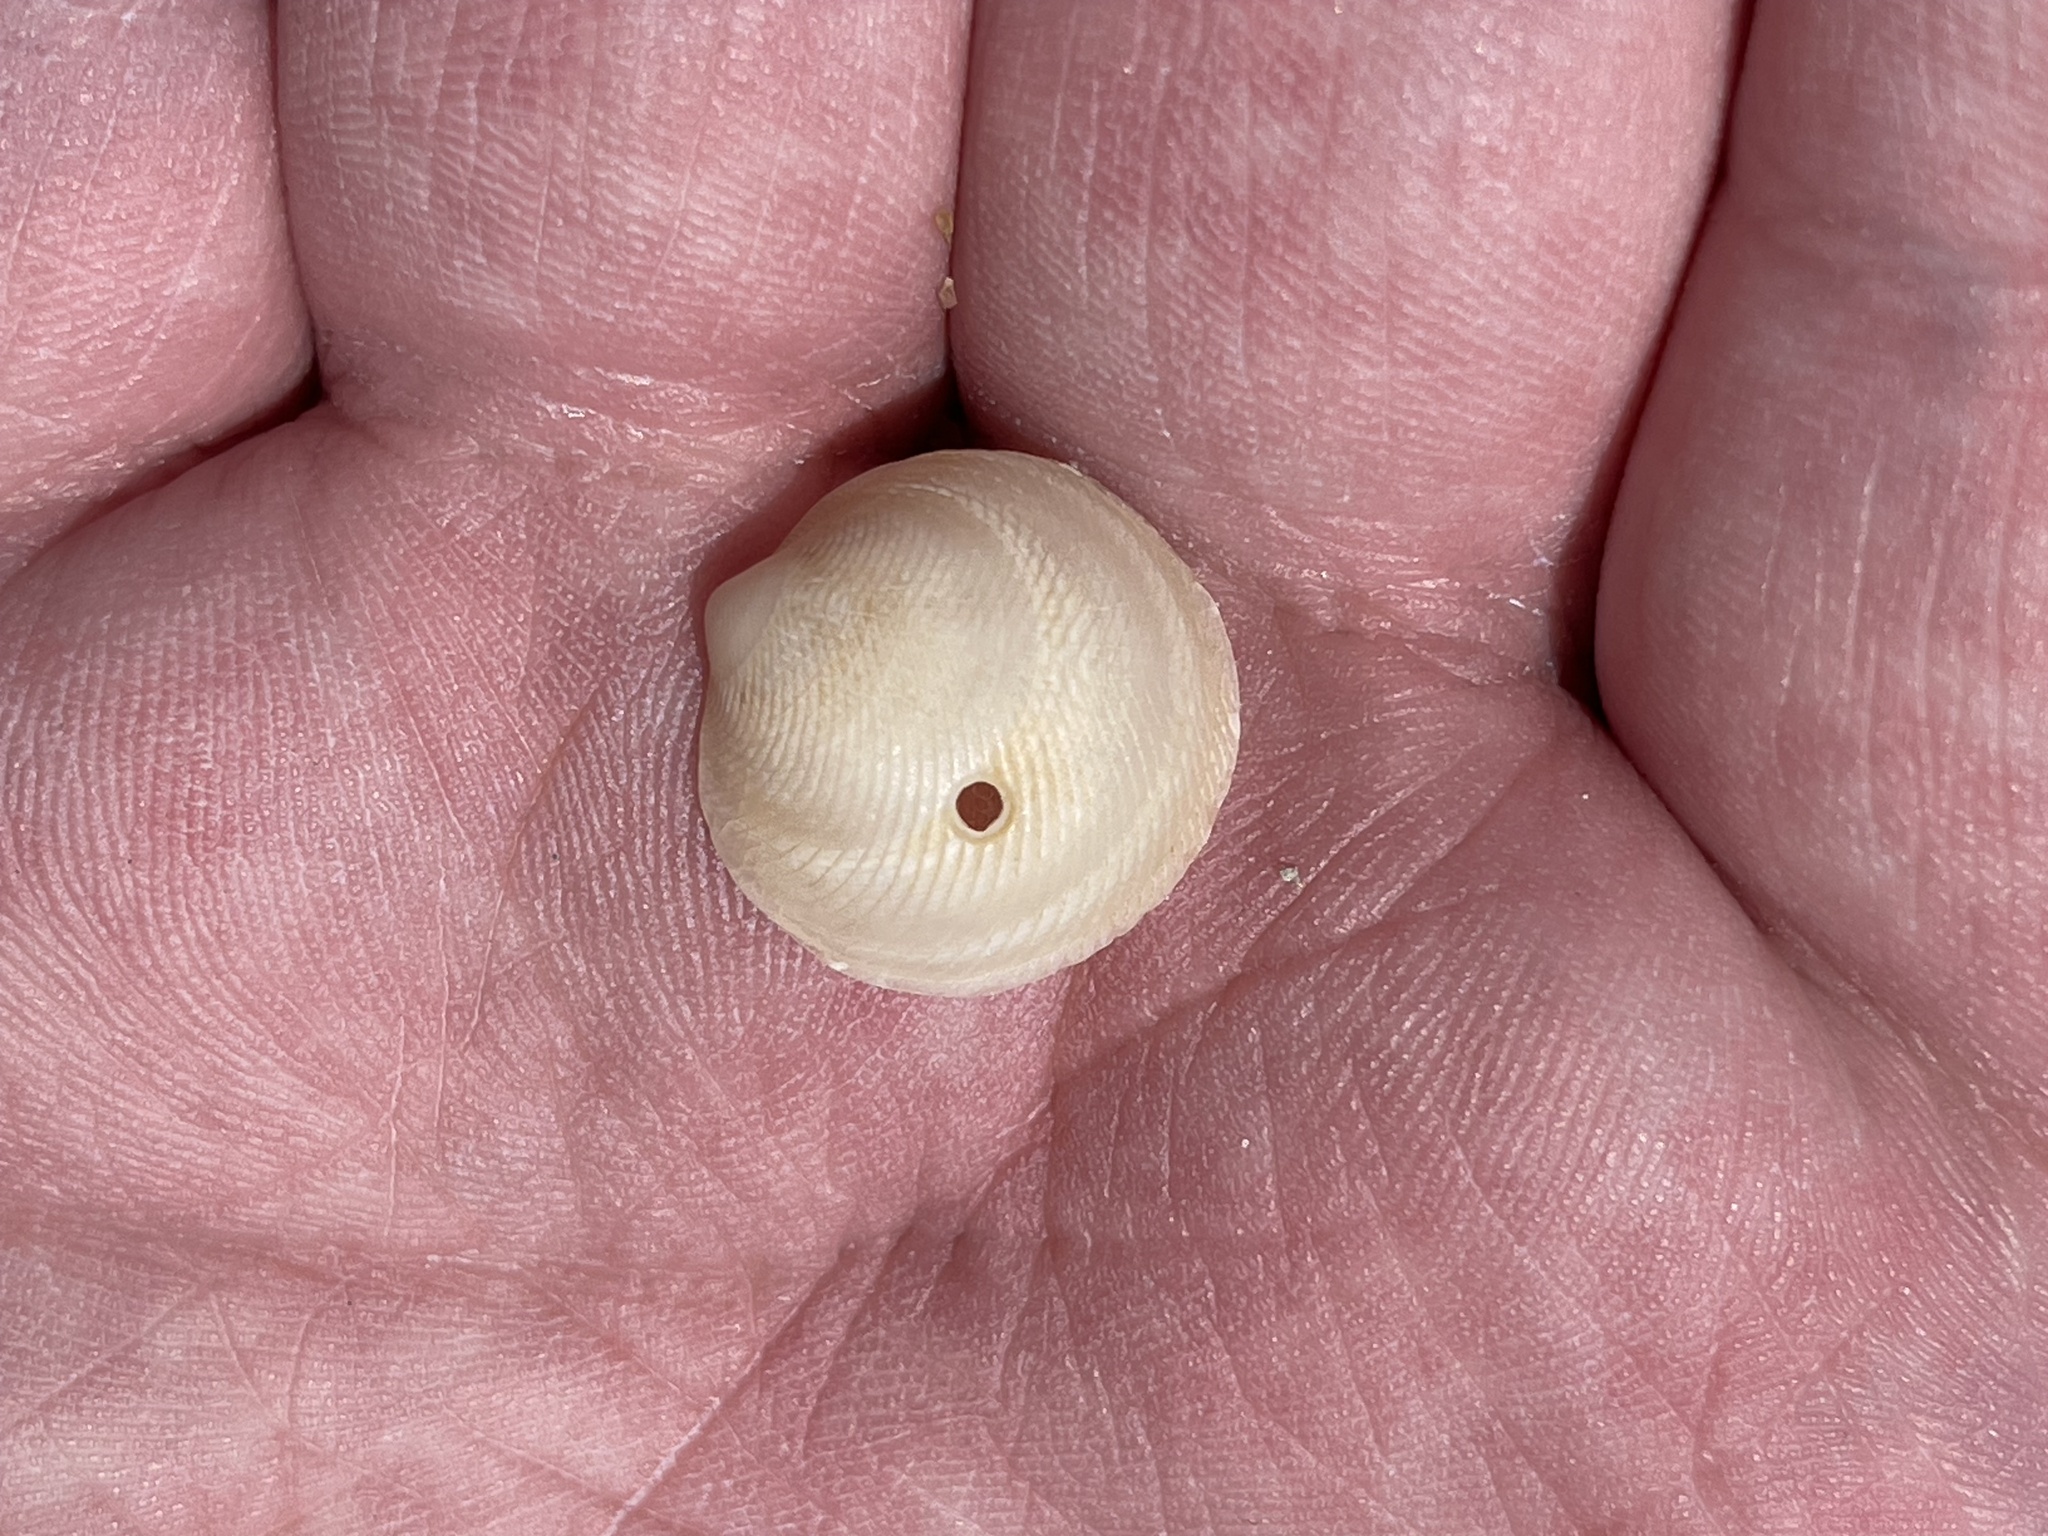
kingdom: Animalia
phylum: Mollusca
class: Bivalvia
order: Lucinida
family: Lucinidae
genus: Divalinga
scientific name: Divalinga quadrisulcata
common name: Cross-hatched lucine
